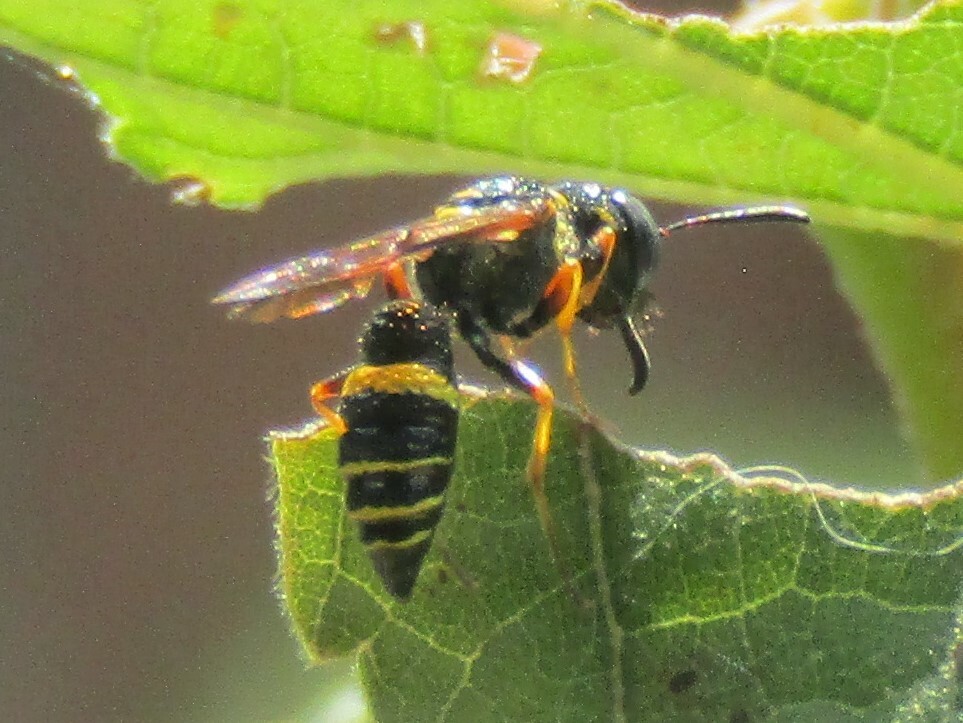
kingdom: Animalia
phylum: Arthropoda
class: Insecta
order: Hymenoptera
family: Crabronidae
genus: Philanthus
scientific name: Philanthus gibbosus
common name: Humped beewolf
